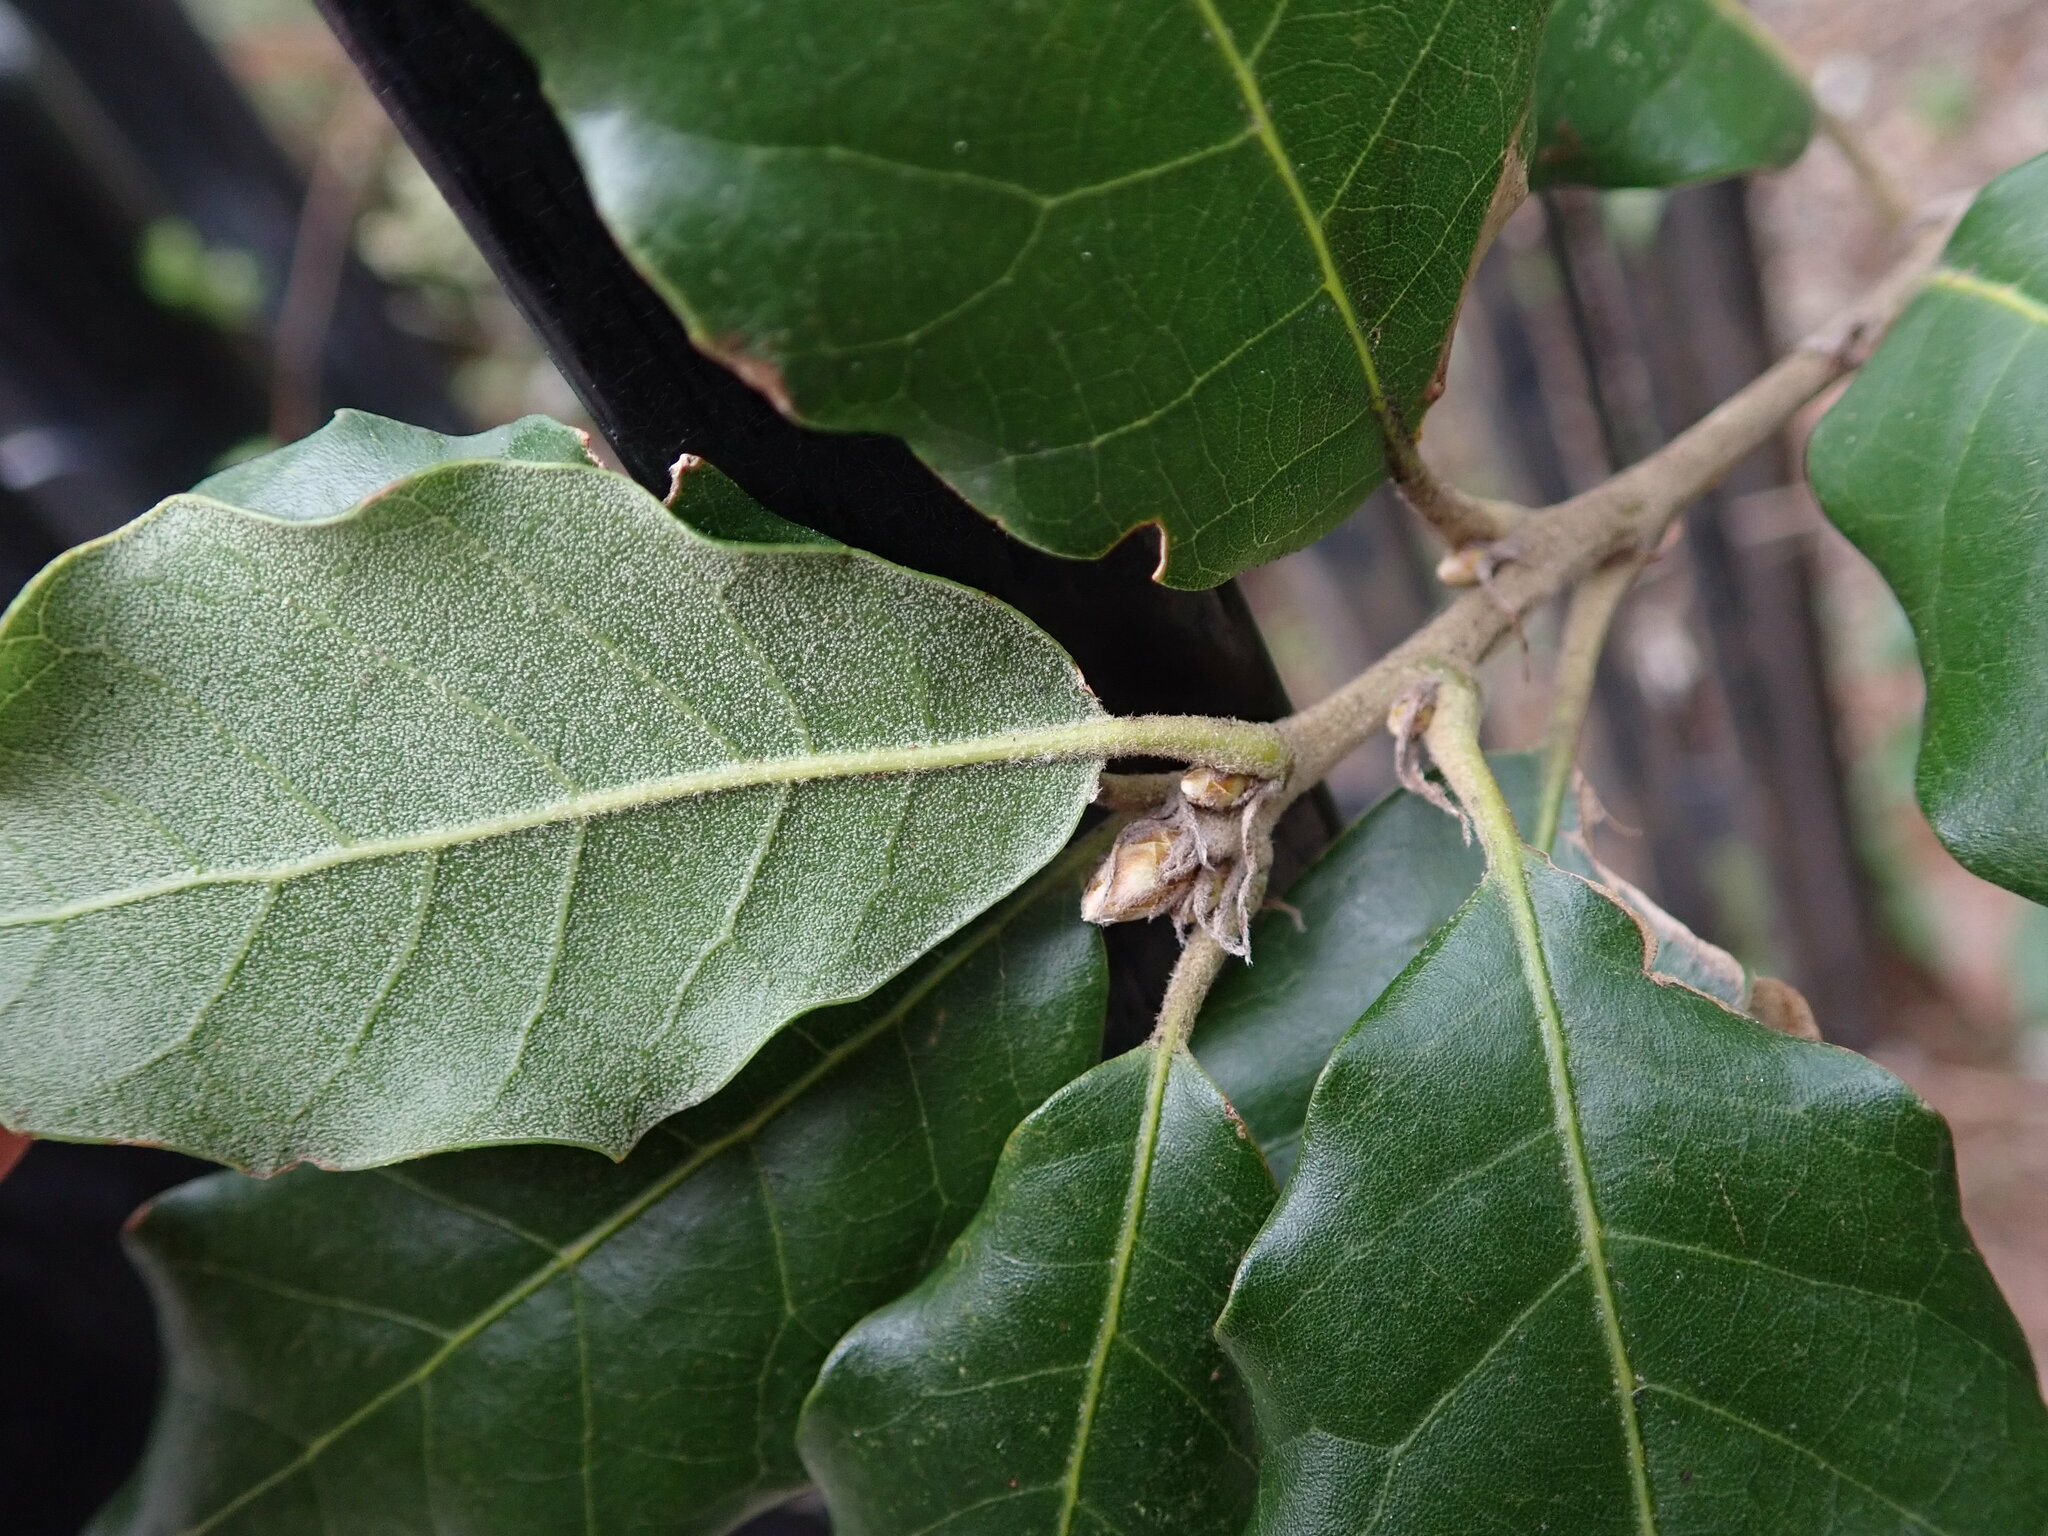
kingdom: Plantae
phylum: Tracheophyta
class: Magnoliopsida
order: Fagales
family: Fagaceae
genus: Quercus
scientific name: Quercus ilex
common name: Evergreen oak
